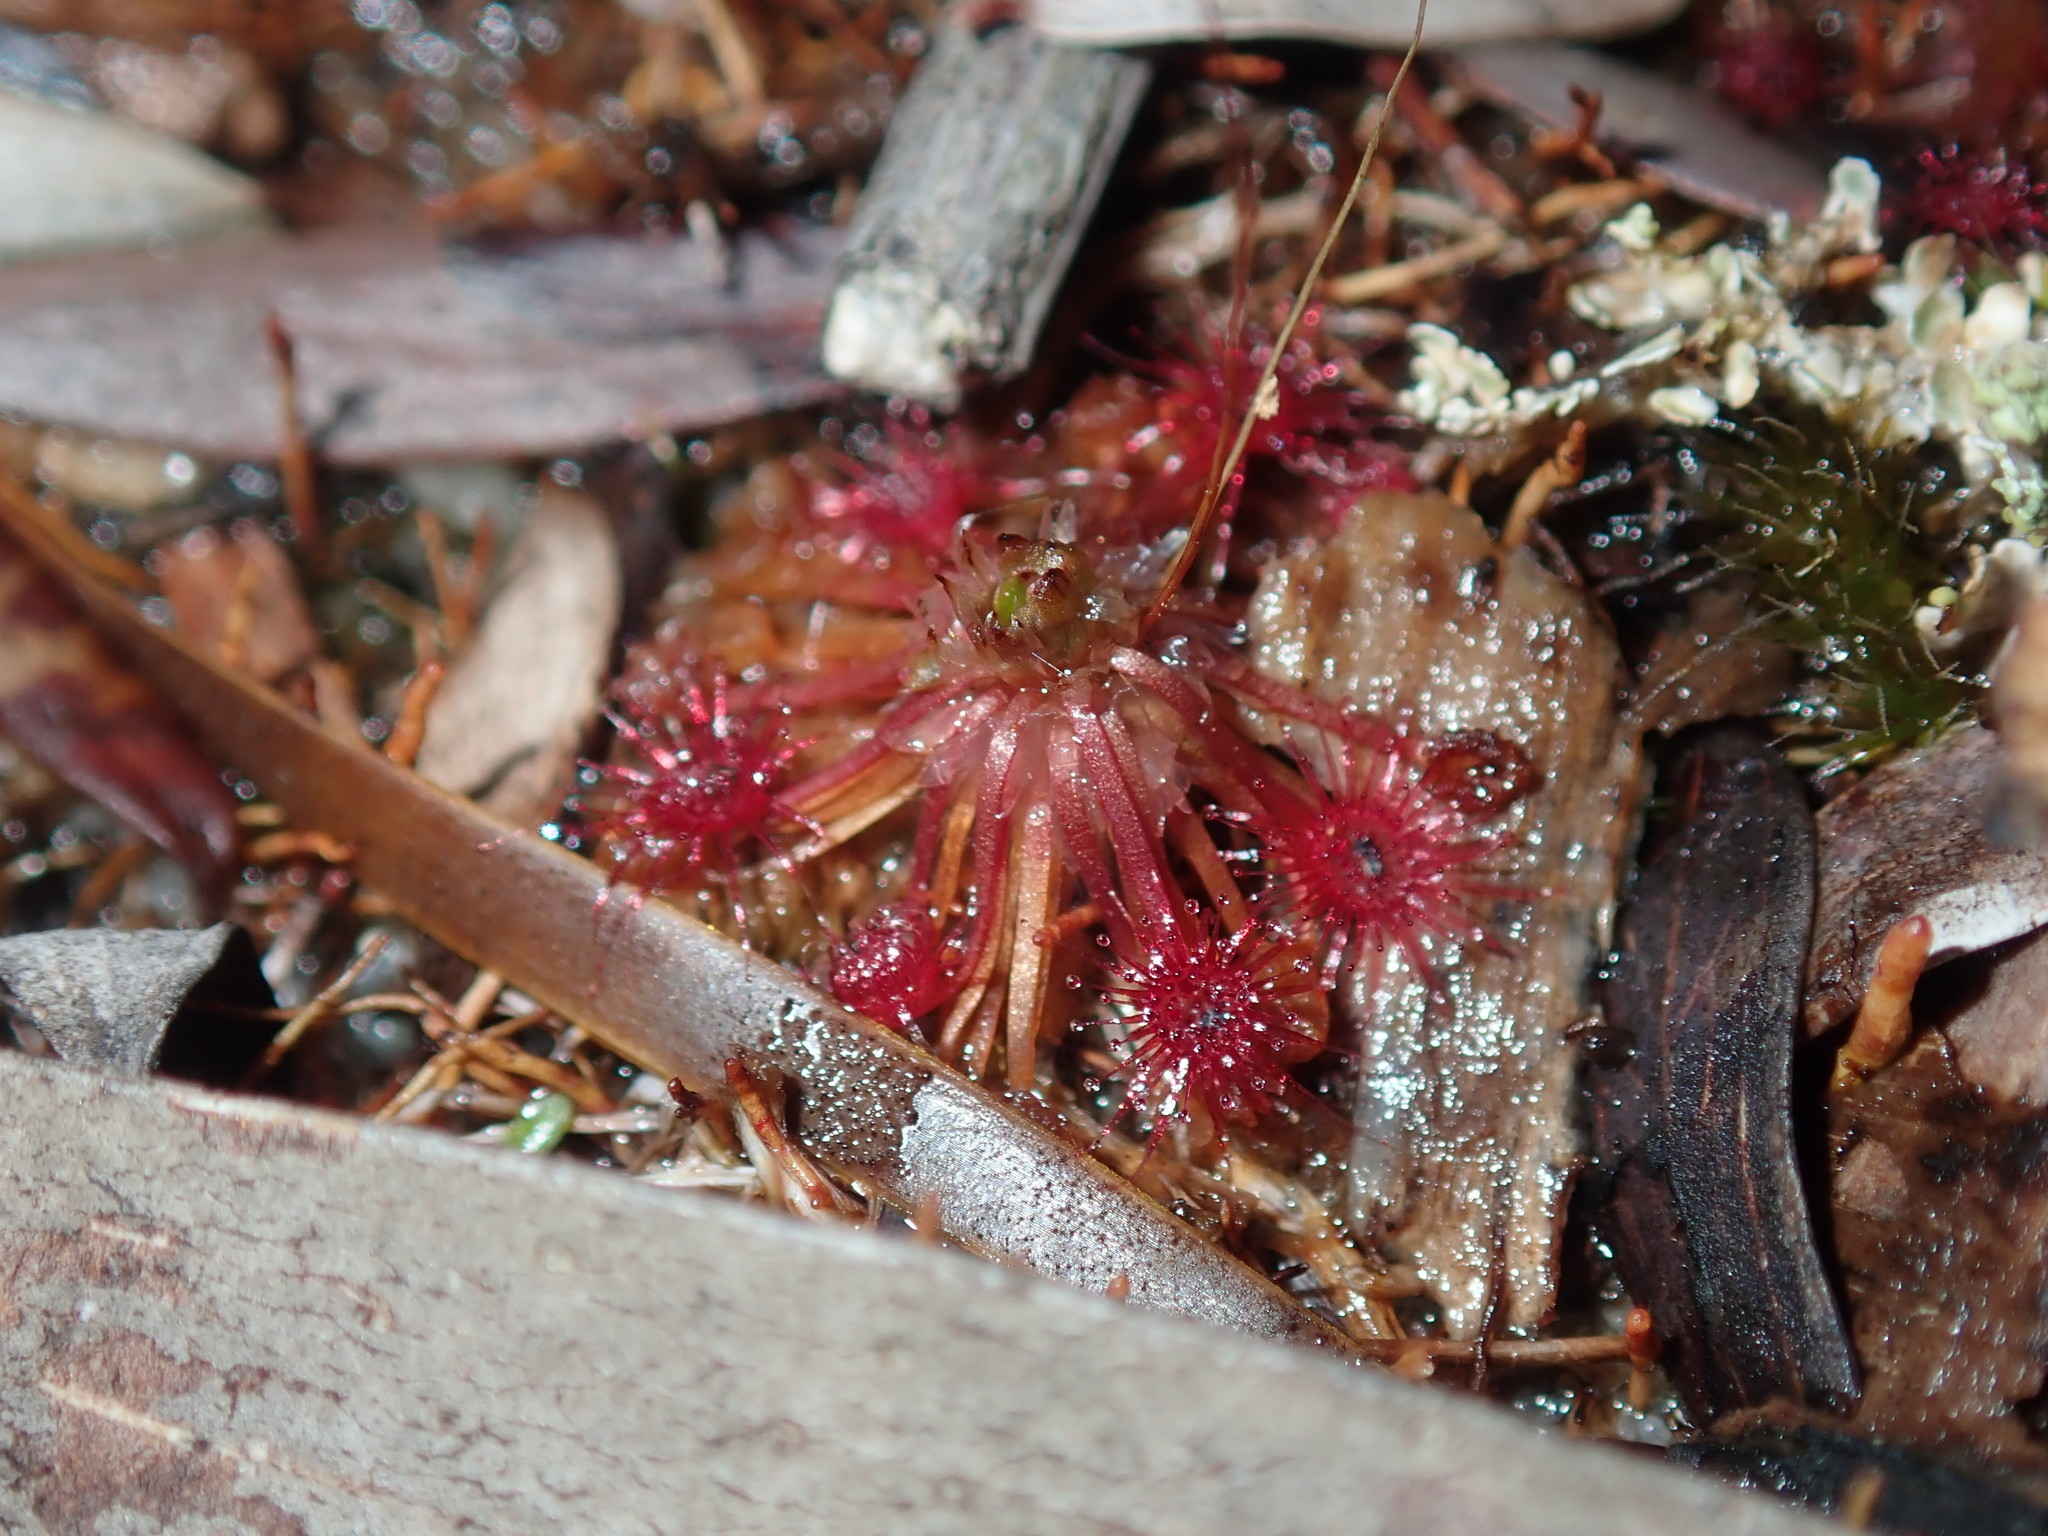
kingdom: Plantae
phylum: Tracheophyta
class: Magnoliopsida
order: Caryophyllales
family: Droseraceae
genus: Drosera
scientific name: Drosera pygmaea
